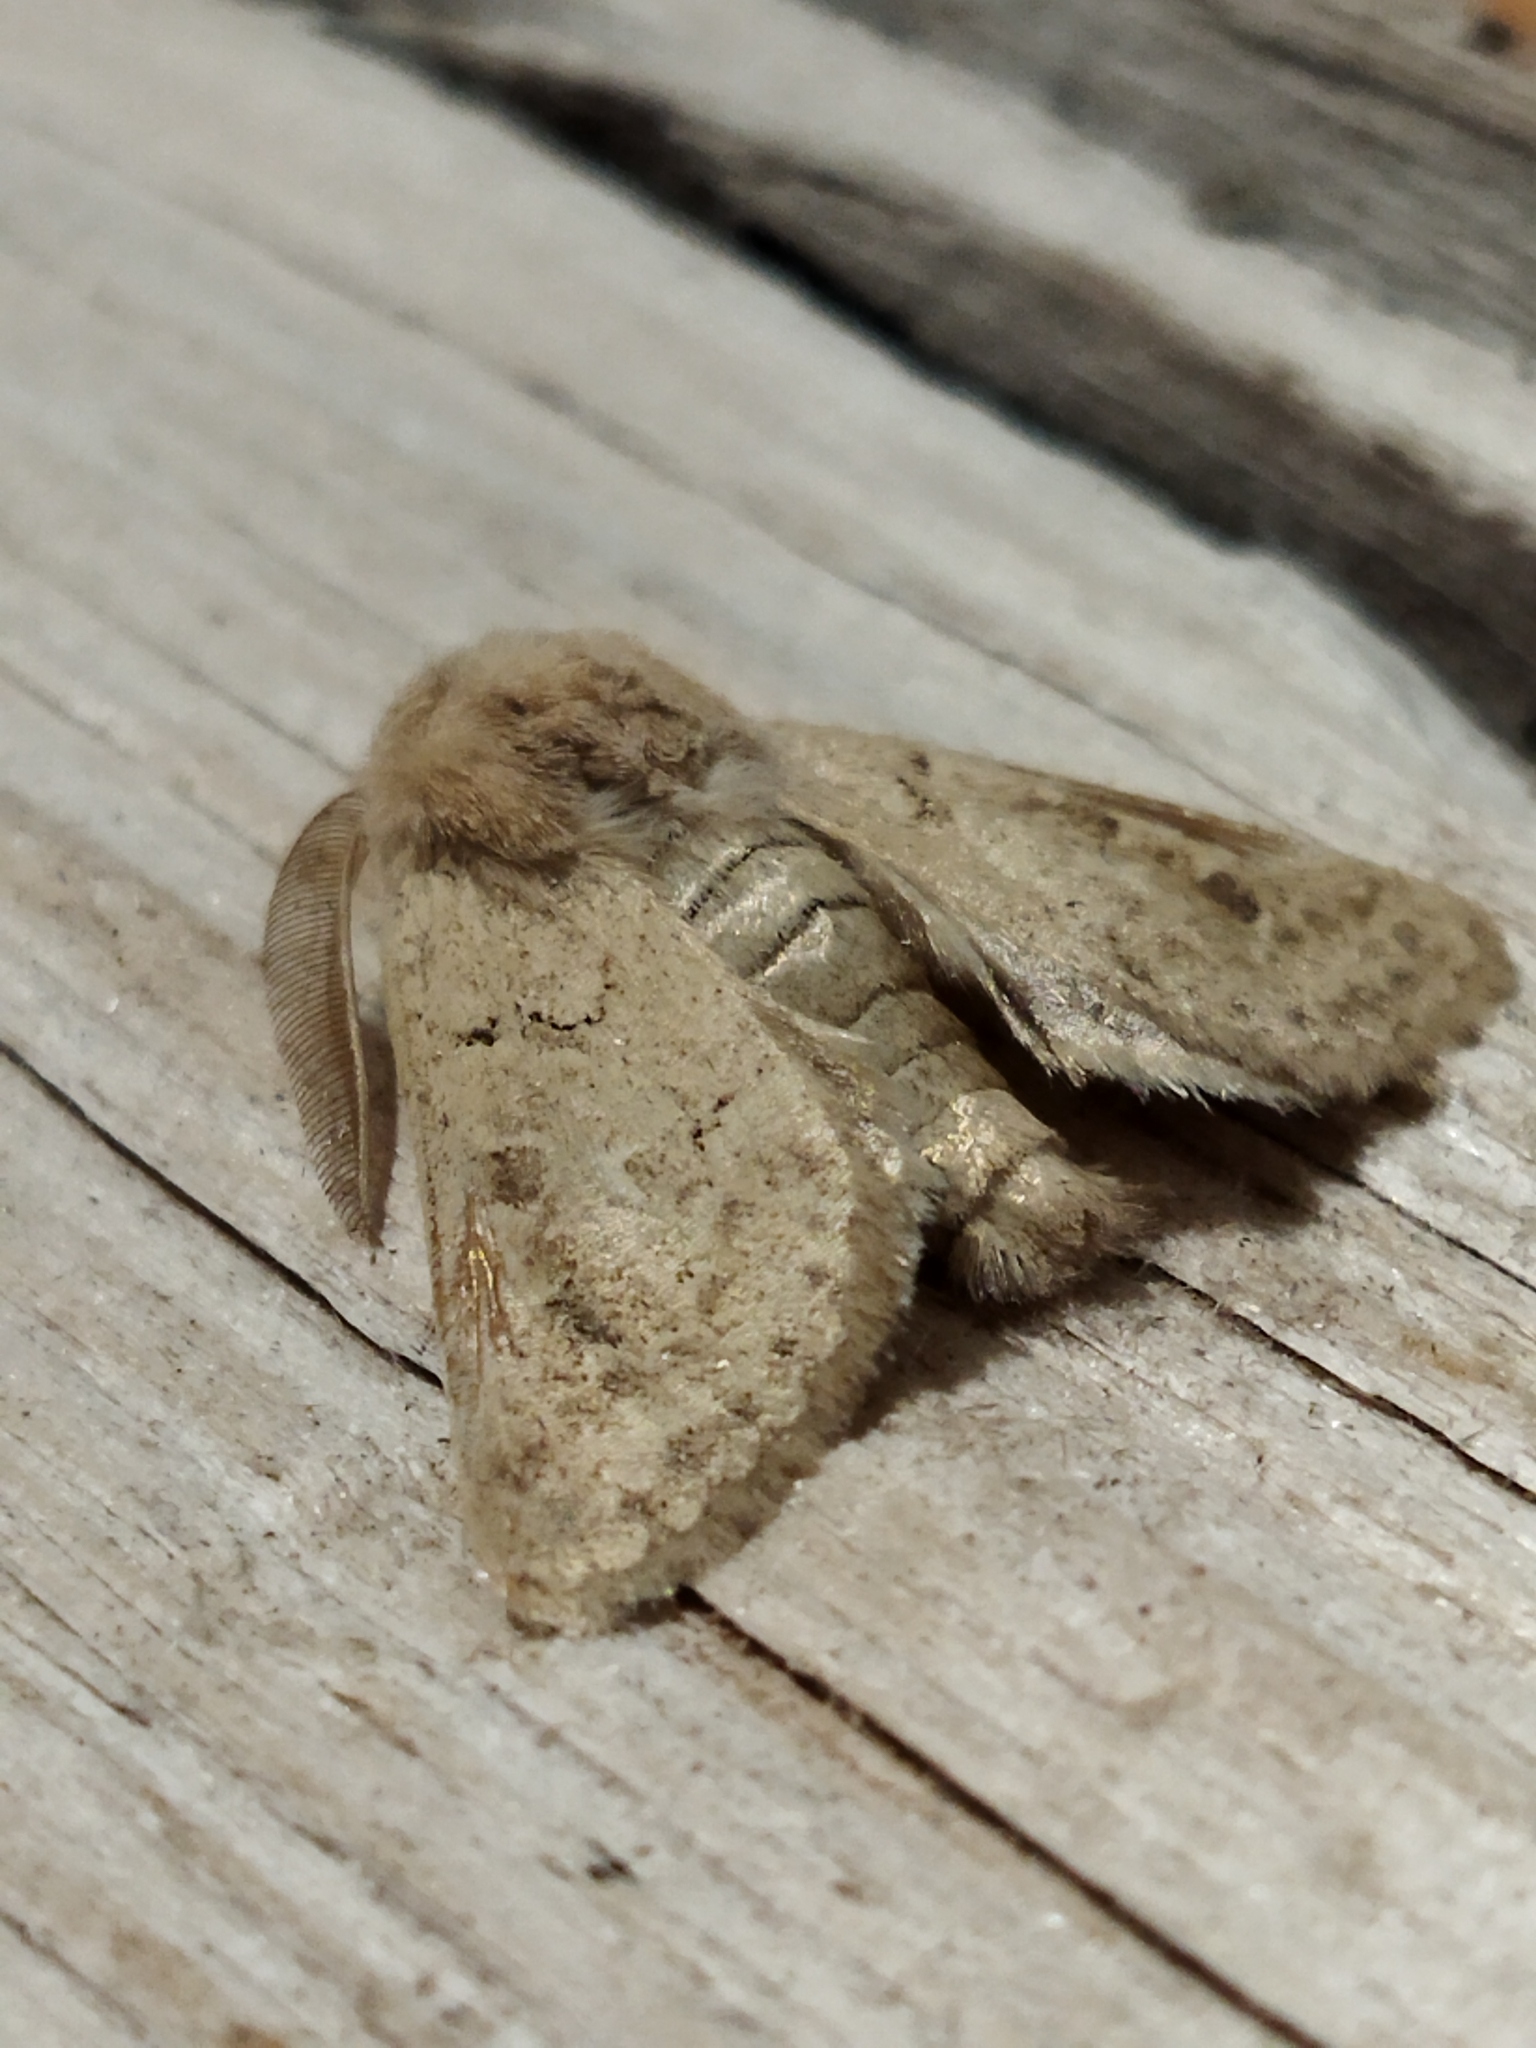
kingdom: Animalia
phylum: Arthropoda
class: Insecta
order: Lepidoptera
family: Noctuidae
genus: Episema
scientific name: Episema lederi
